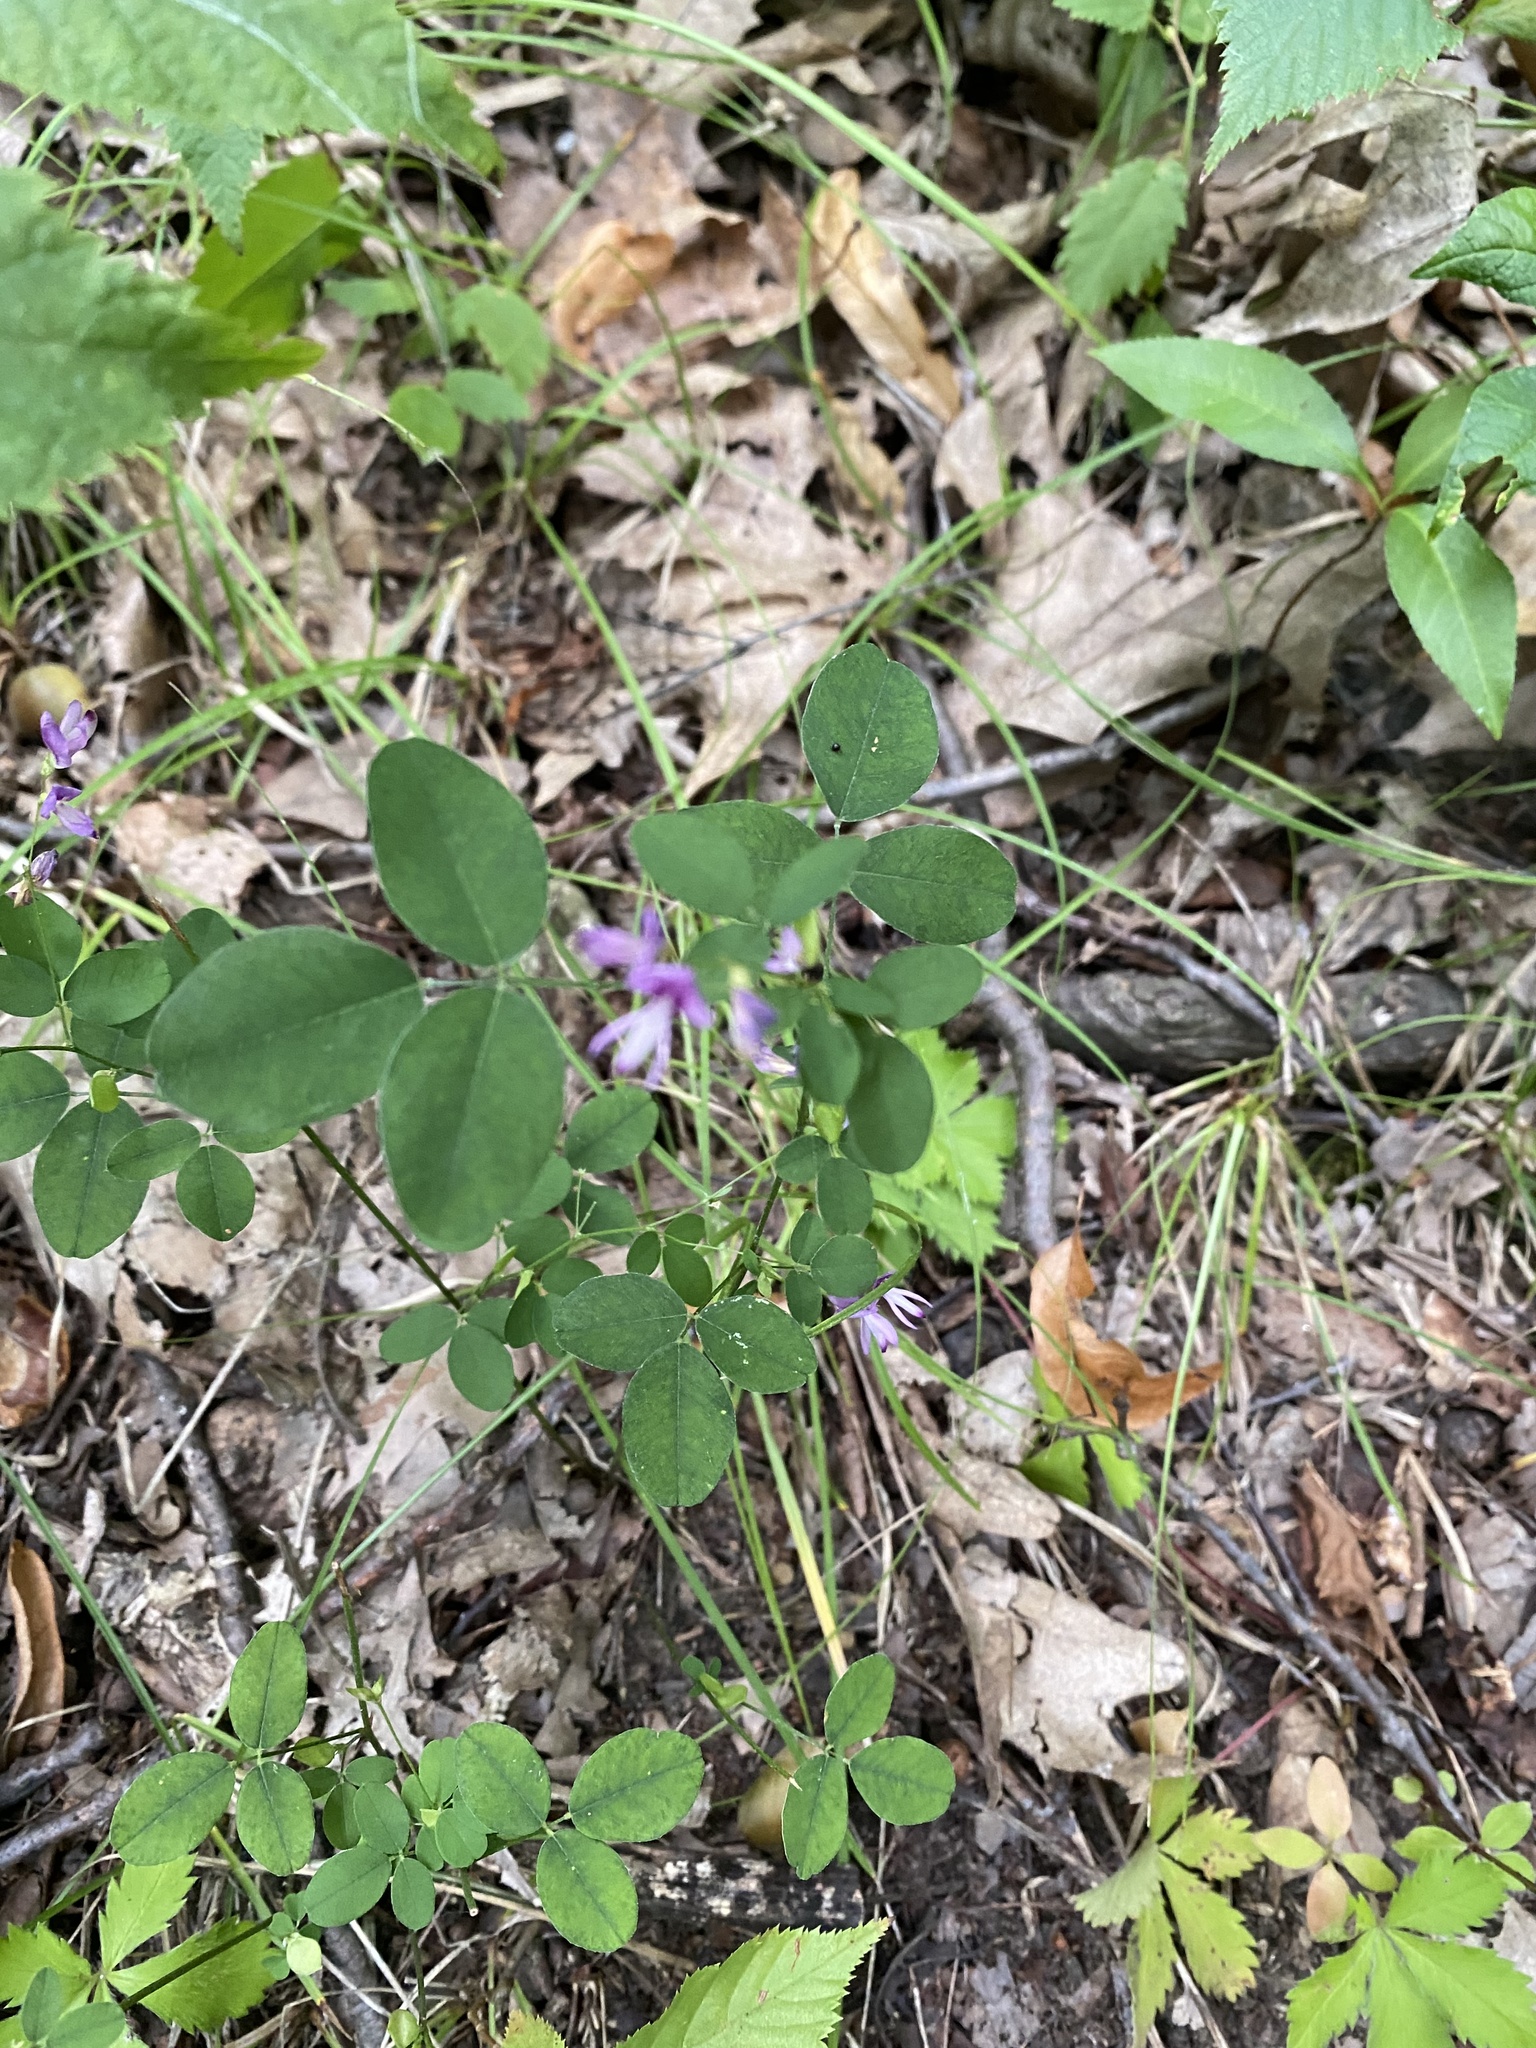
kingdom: Plantae
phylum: Tracheophyta
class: Magnoliopsida
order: Fabales
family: Fabaceae
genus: Lespedeza
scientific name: Lespedeza
